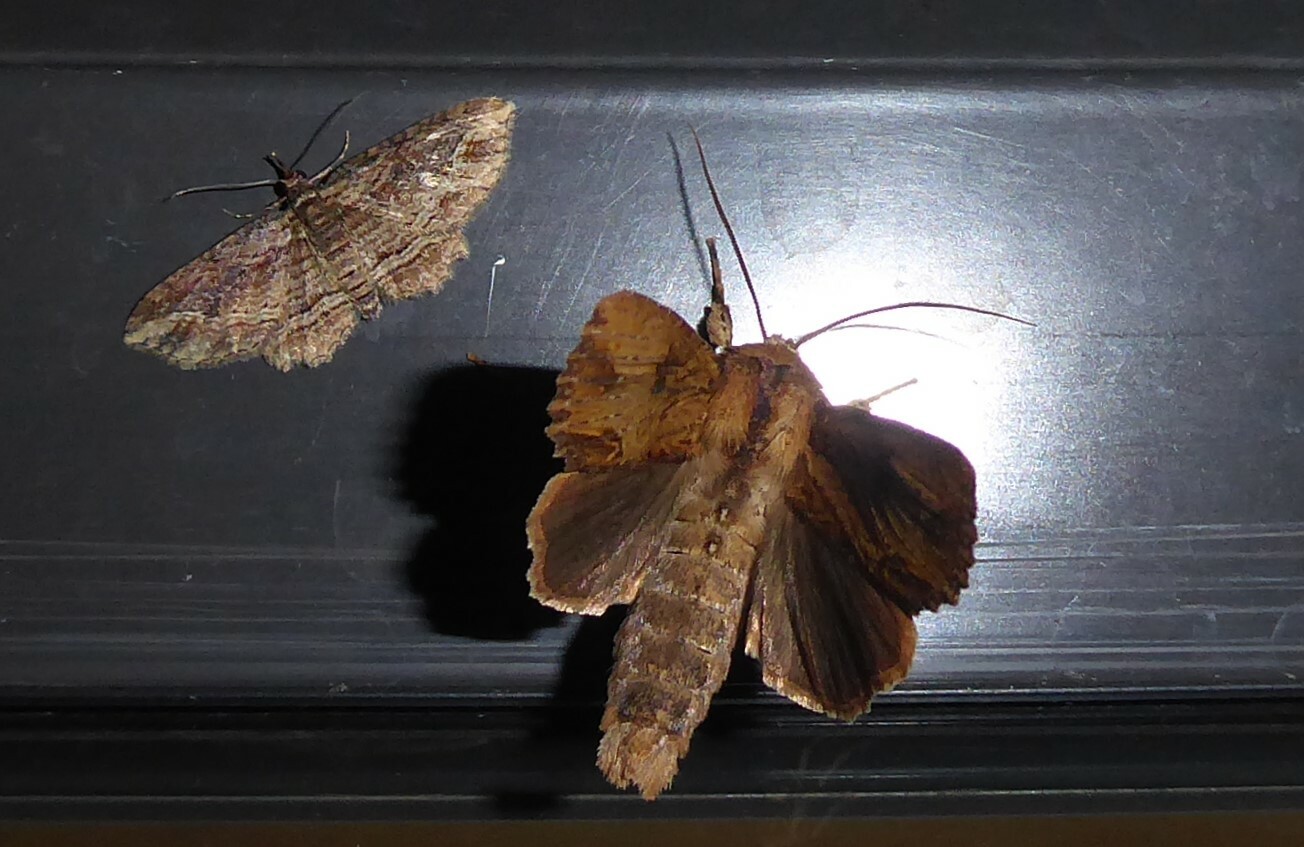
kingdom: Animalia
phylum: Arthropoda
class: Insecta
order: Lepidoptera
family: Noctuidae
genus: Ichneutica
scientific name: Ichneutica
